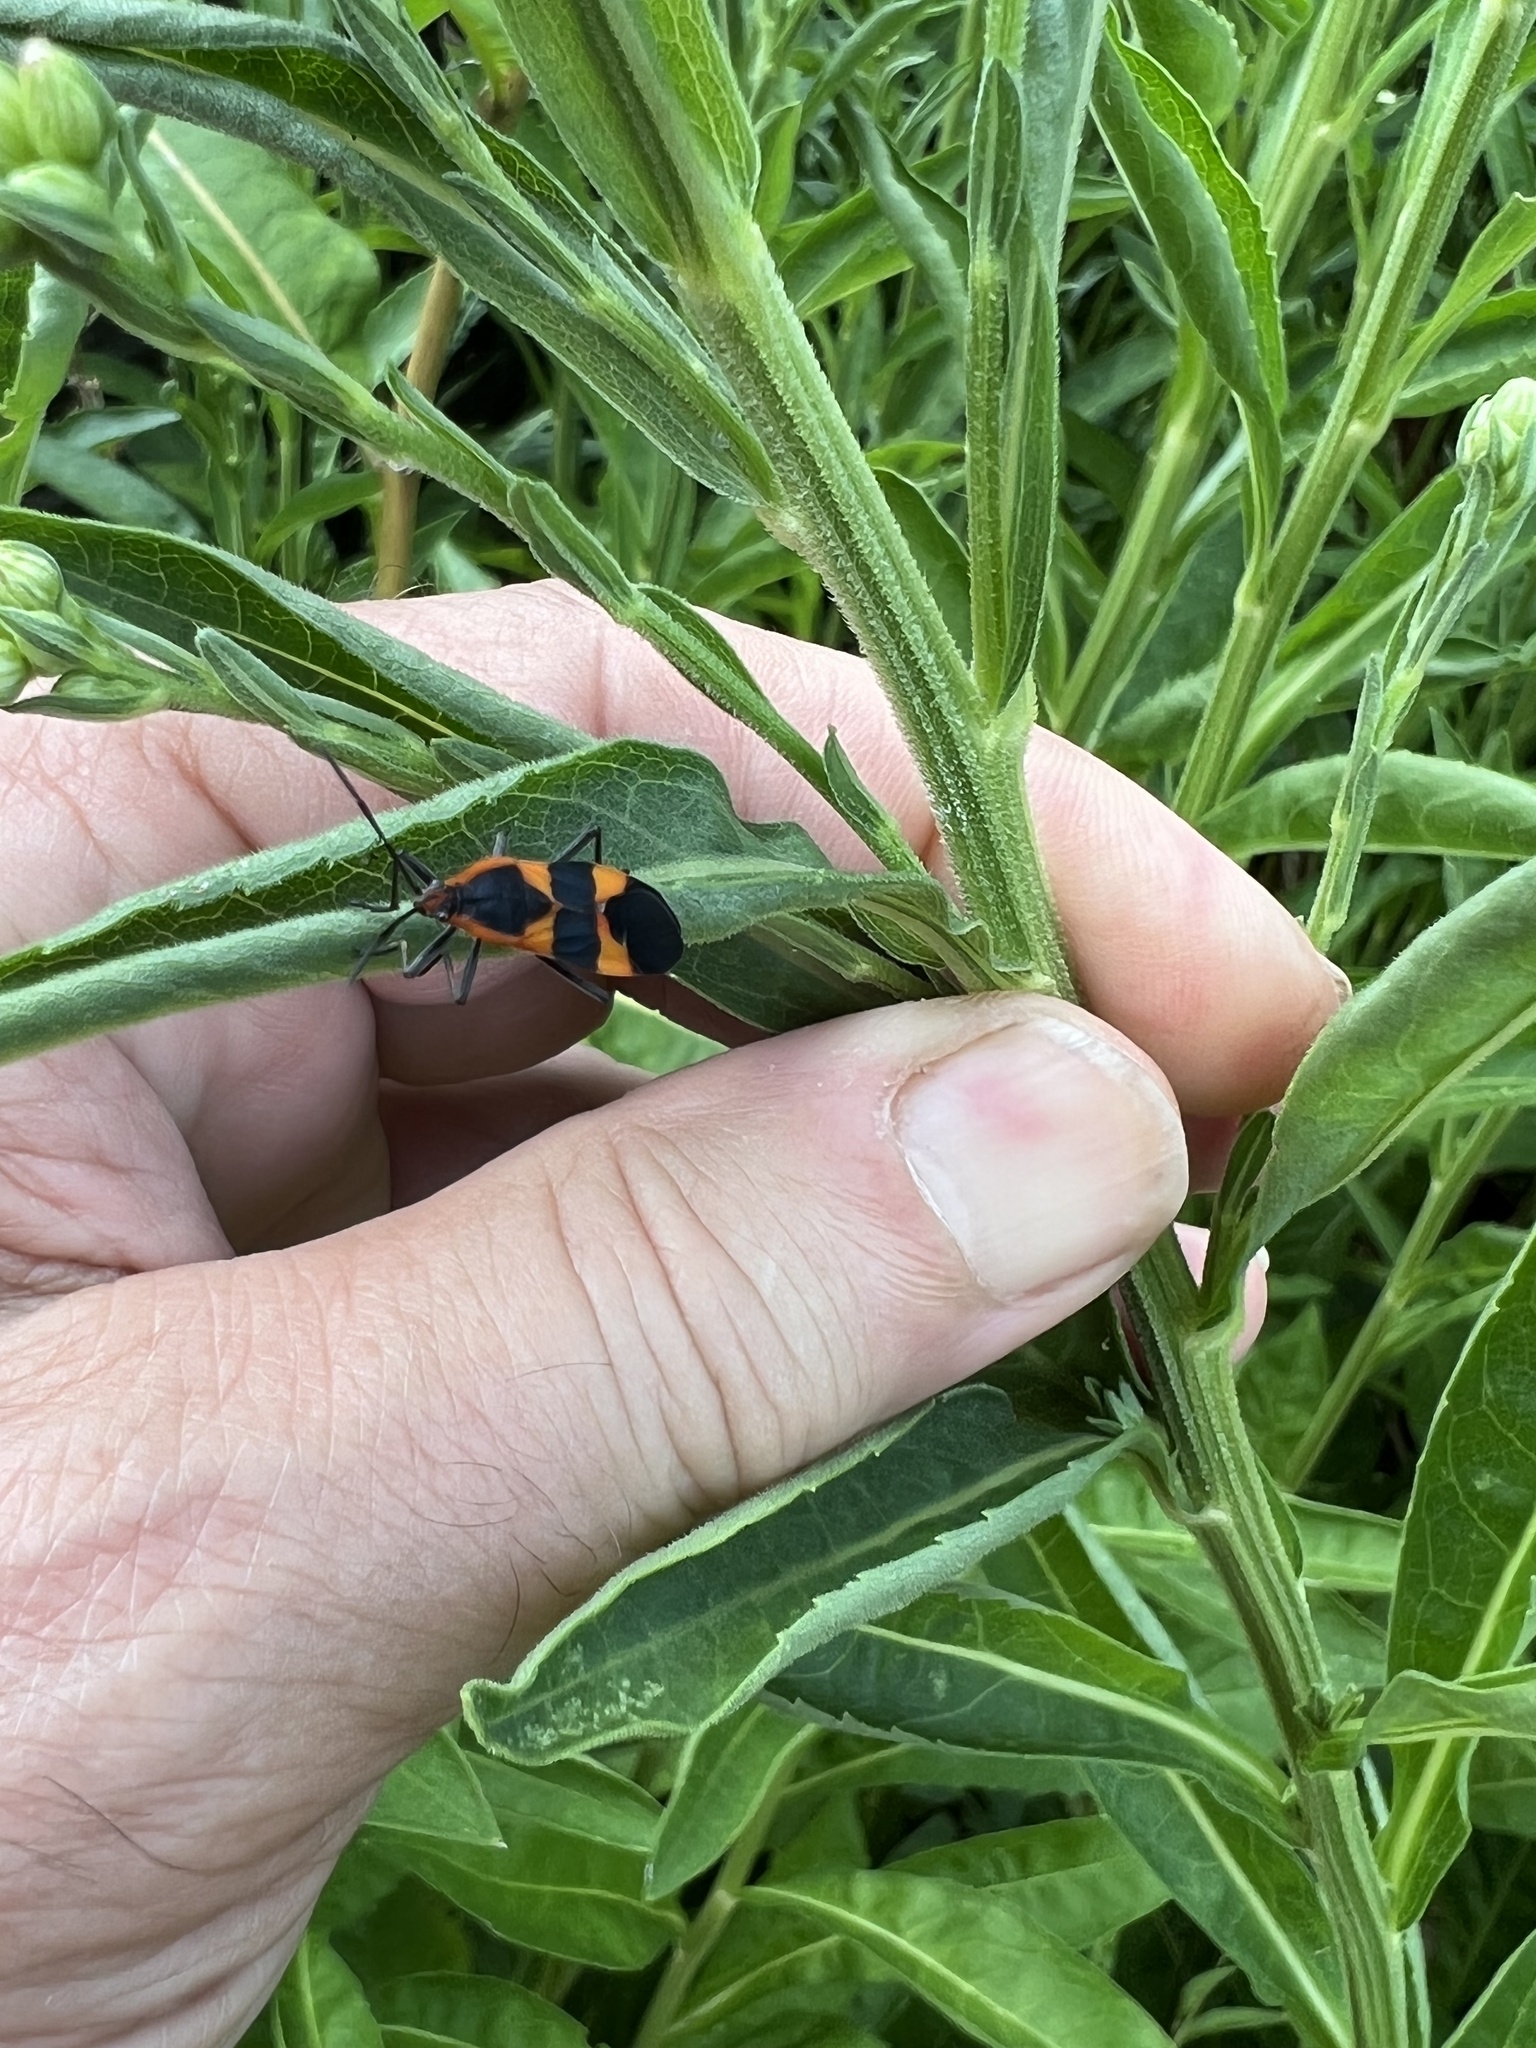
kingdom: Animalia
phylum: Arthropoda
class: Insecta
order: Hemiptera
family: Lygaeidae
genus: Oncopeltus
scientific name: Oncopeltus fasciatus
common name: Large milkweed bug
